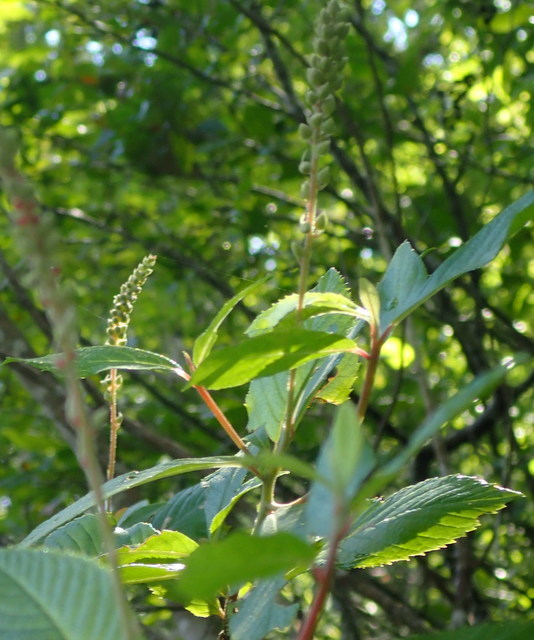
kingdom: Plantae
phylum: Tracheophyta
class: Magnoliopsida
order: Ericales
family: Clethraceae
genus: Clethra
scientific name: Clethra alnifolia
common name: Sweet pepperbush
